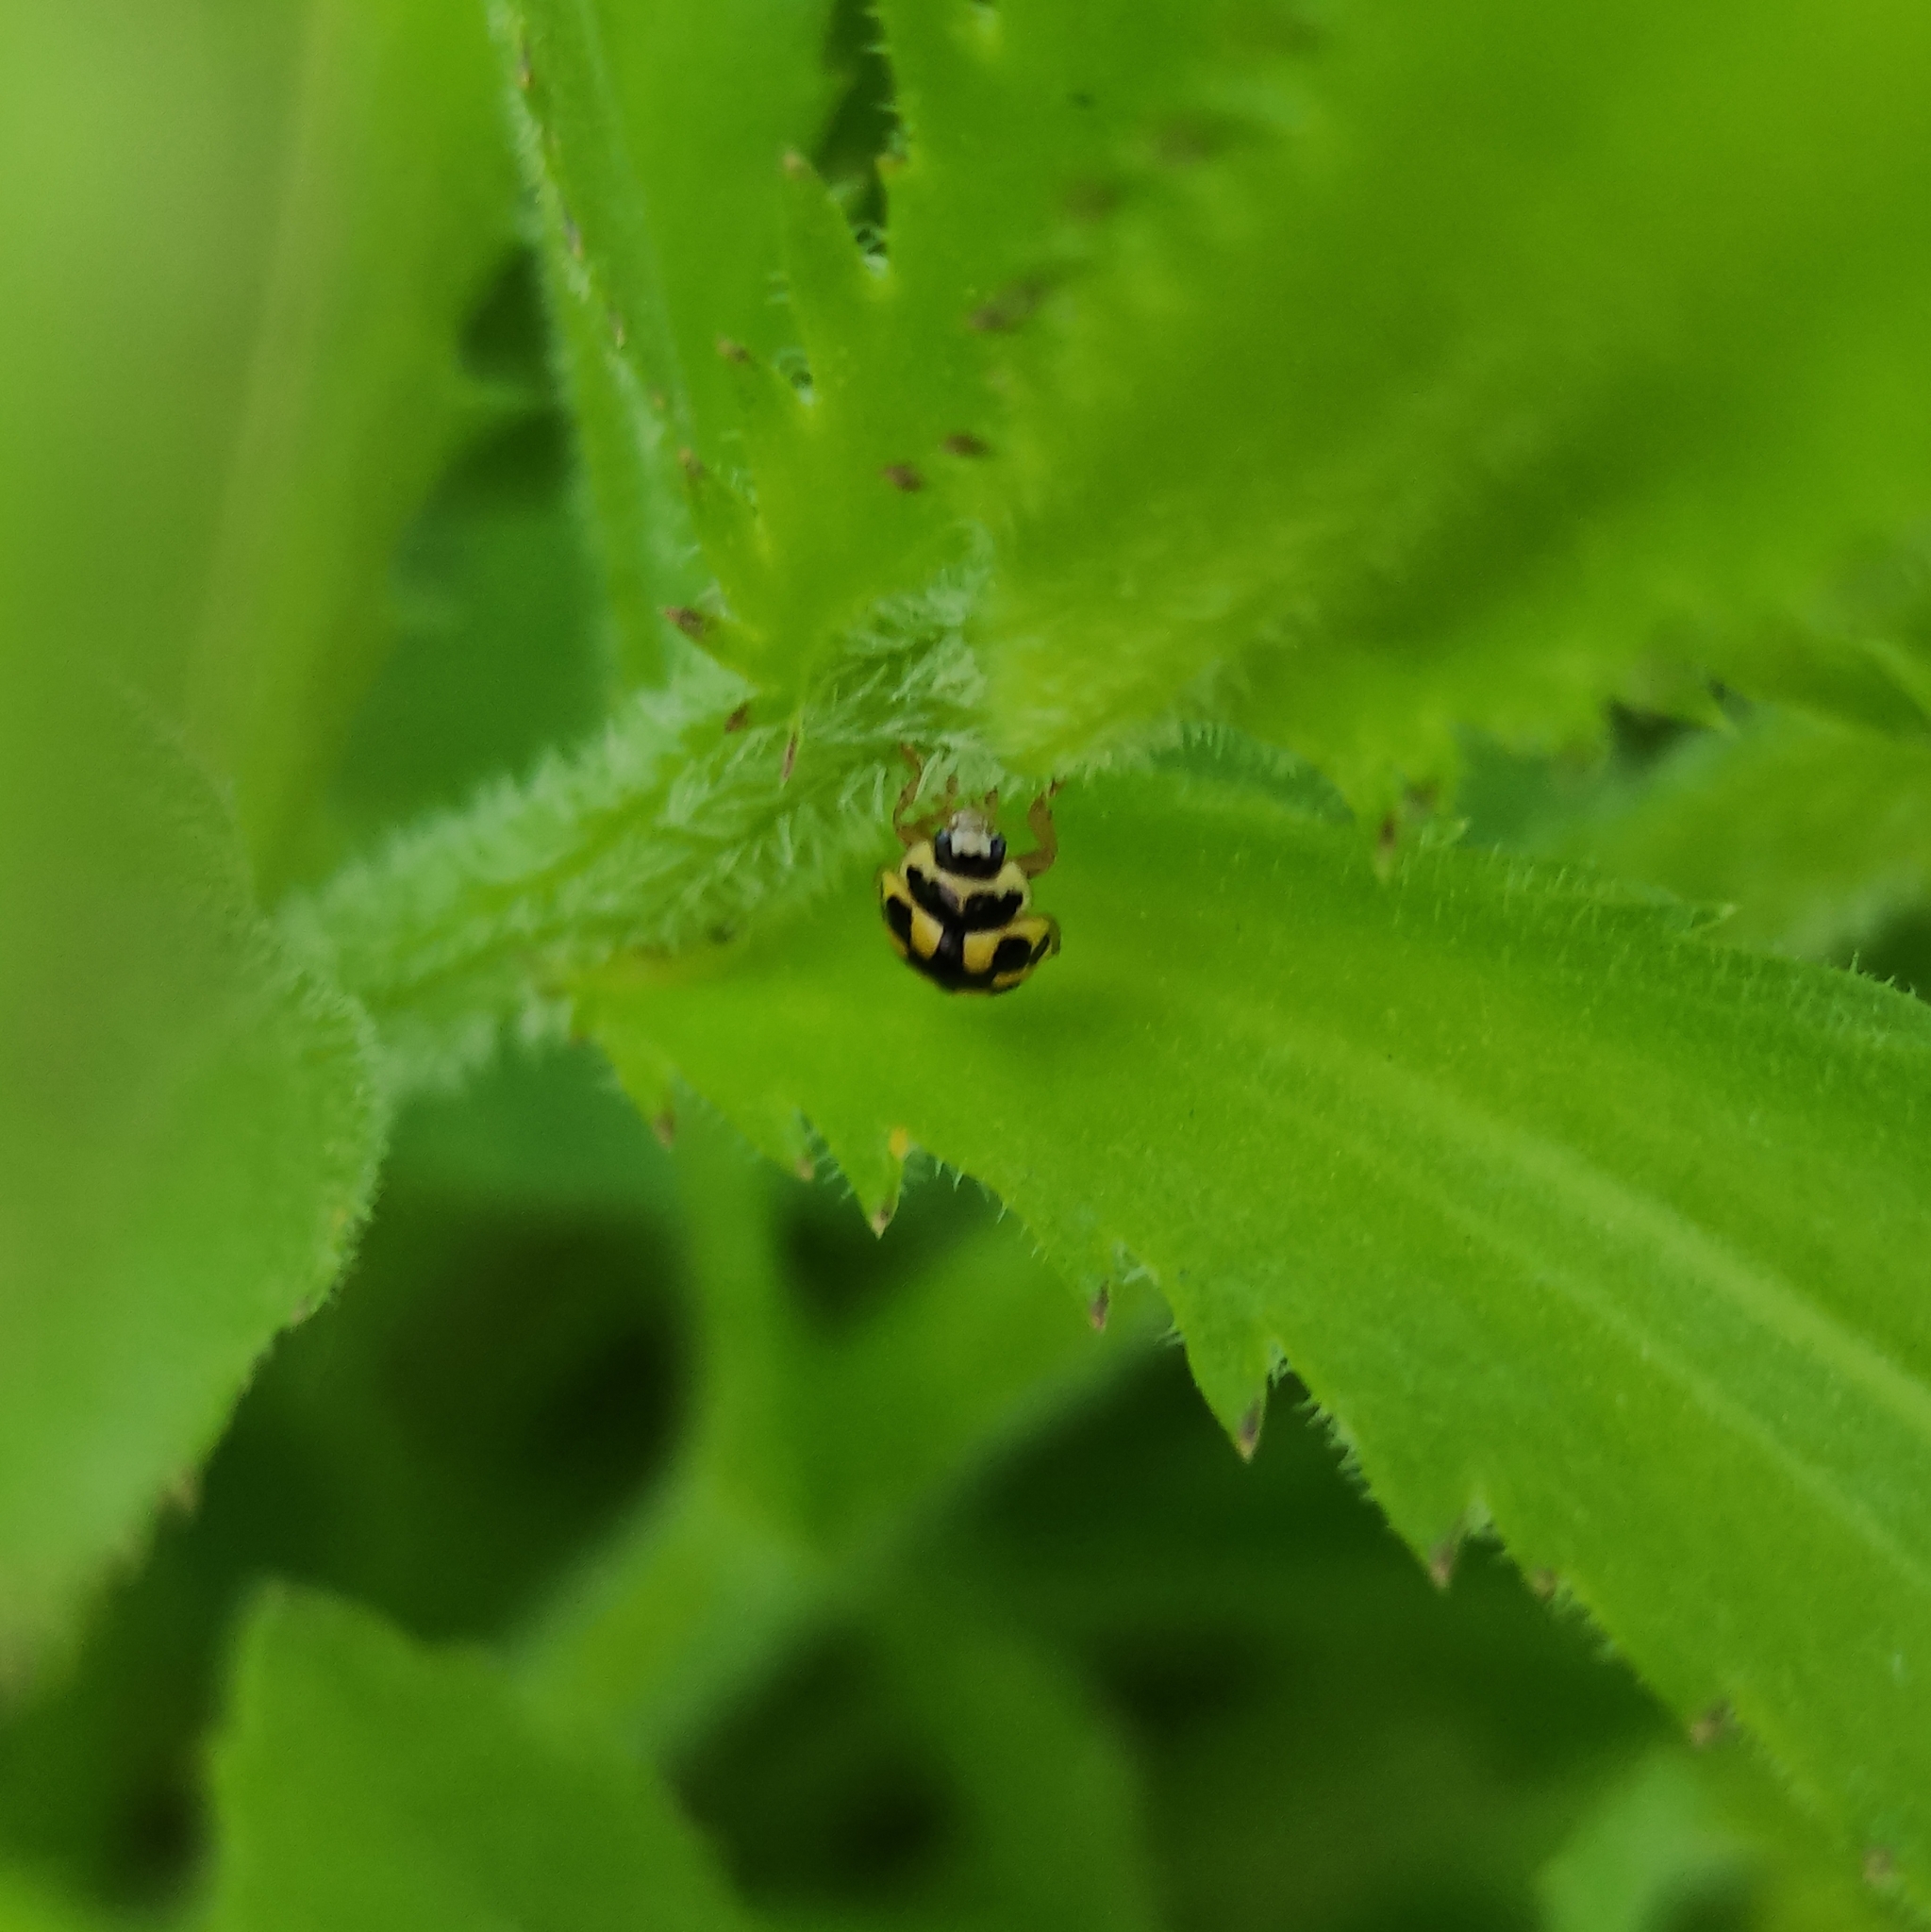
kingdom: Animalia
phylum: Arthropoda
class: Insecta
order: Coleoptera
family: Coccinellidae
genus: Propylaea
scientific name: Propylaea quatuordecimpunctata
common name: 14-spotted ladybird beetle
